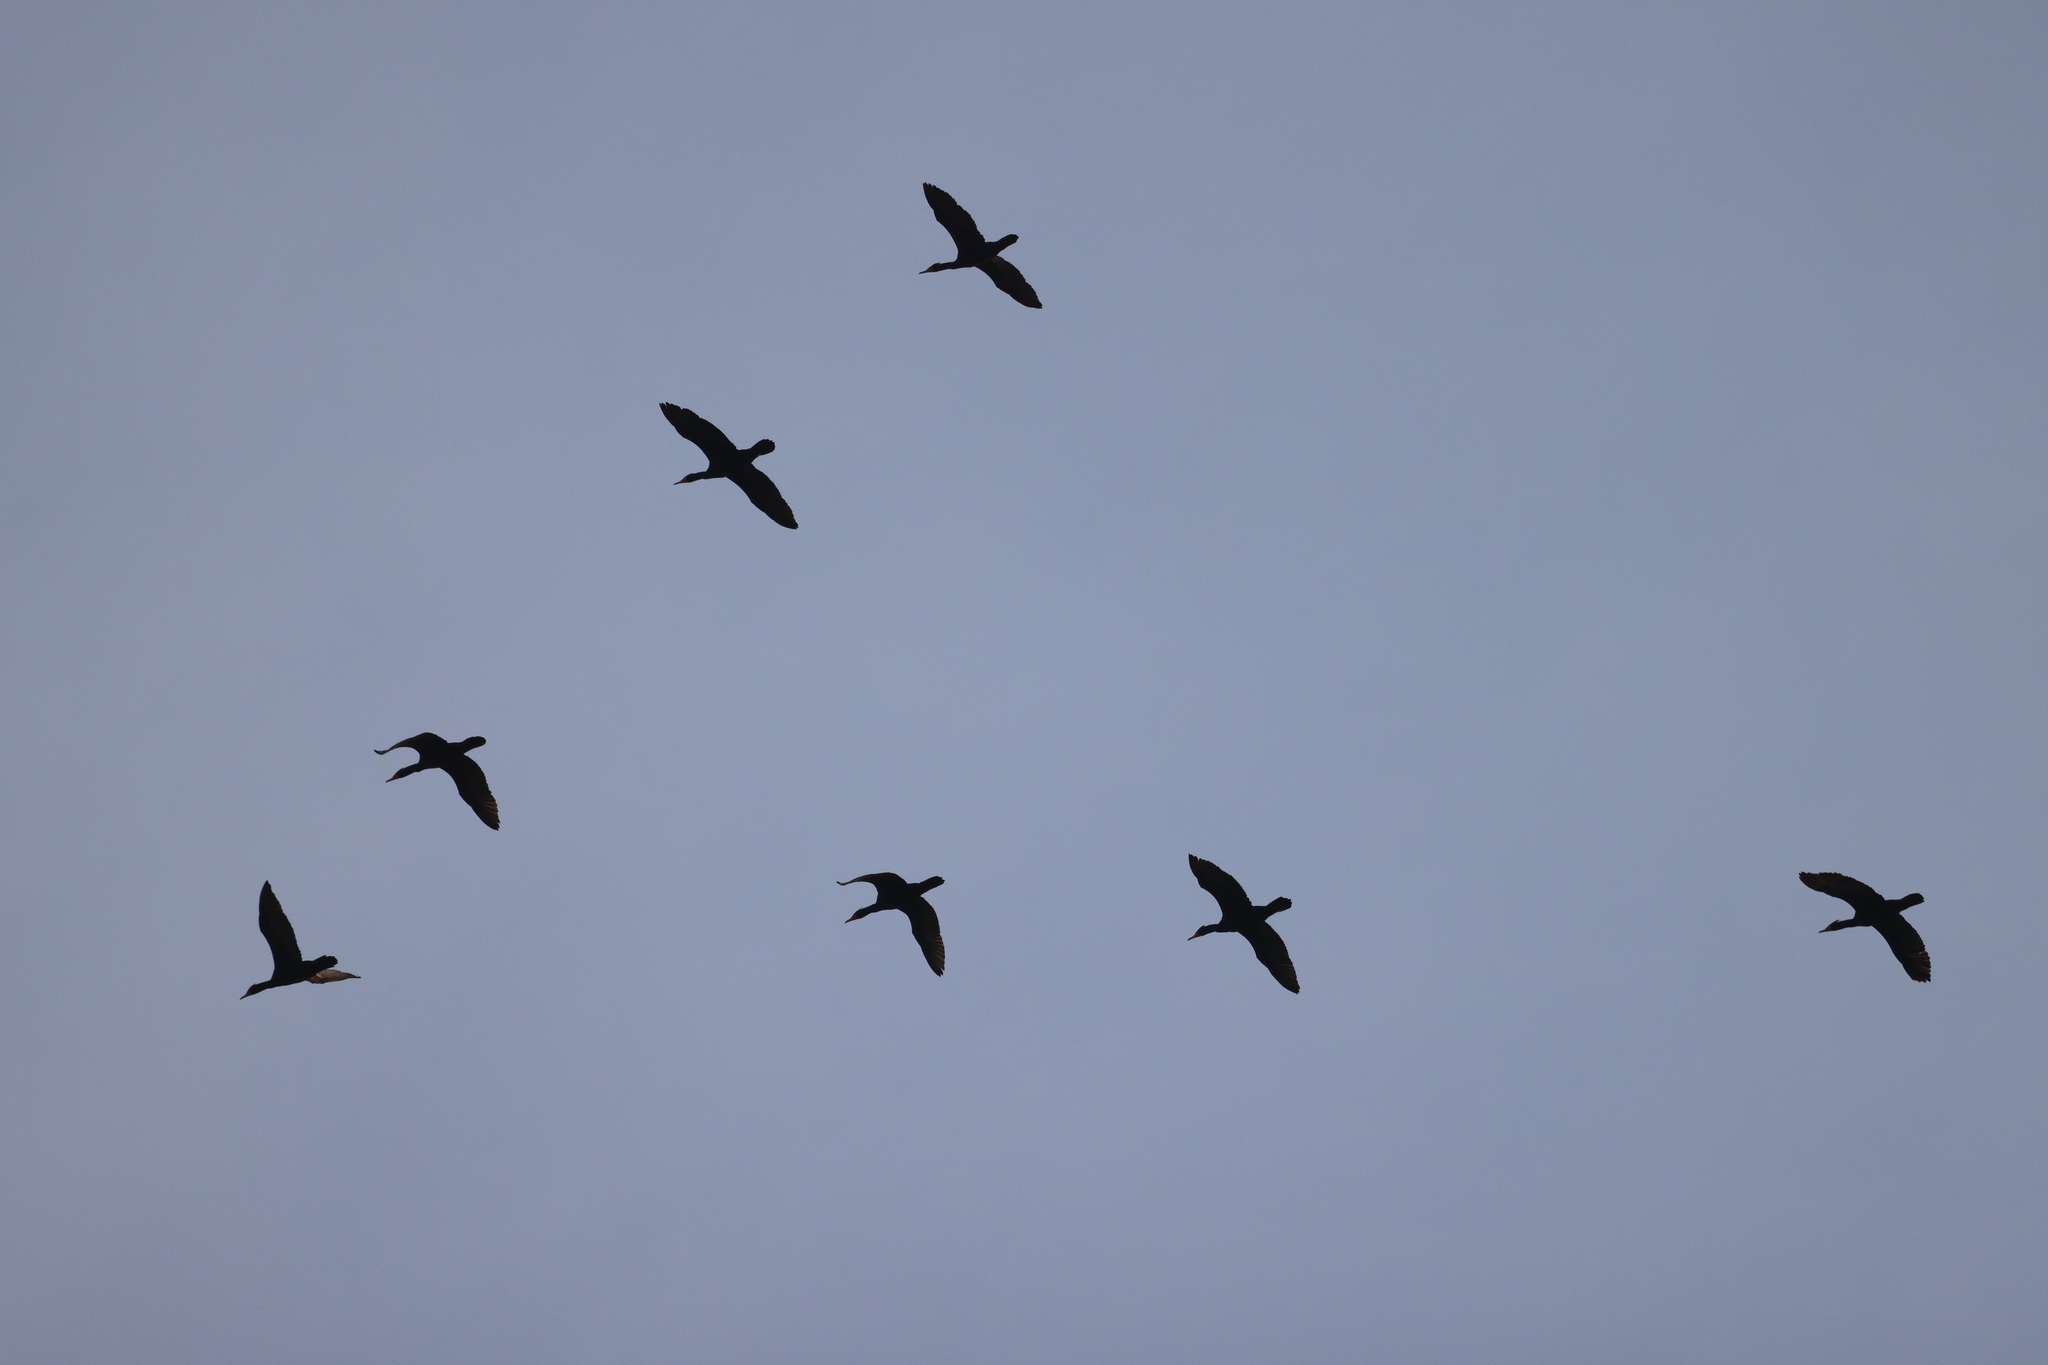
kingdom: Animalia
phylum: Chordata
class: Aves
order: Suliformes
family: Phalacrocoracidae
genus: Phalacrocorax
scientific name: Phalacrocorax auritus
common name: Double-crested cormorant
